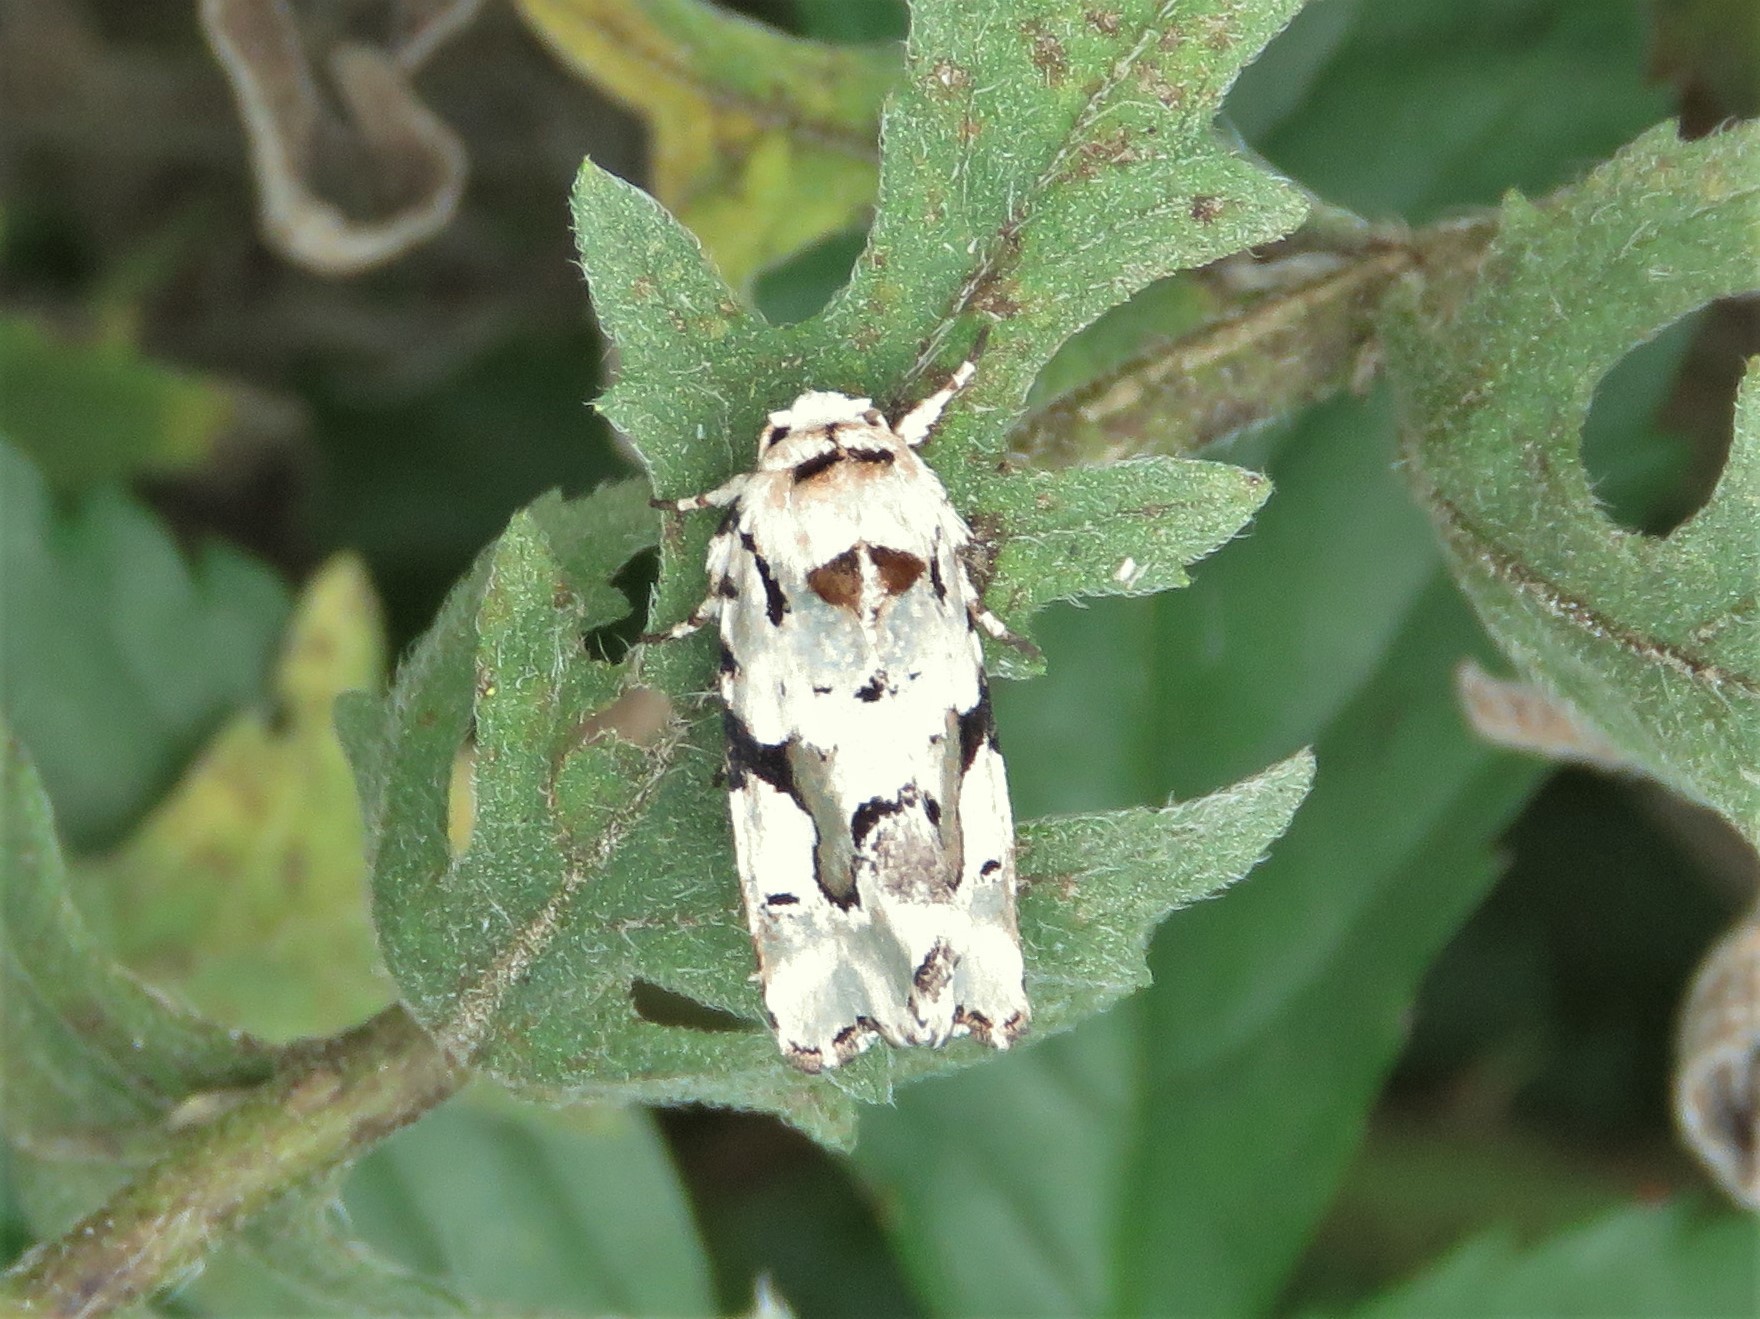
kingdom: Animalia
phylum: Arthropoda
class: Insecta
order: Lepidoptera
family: Noctuidae
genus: Emarginea
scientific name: Emarginea percara
